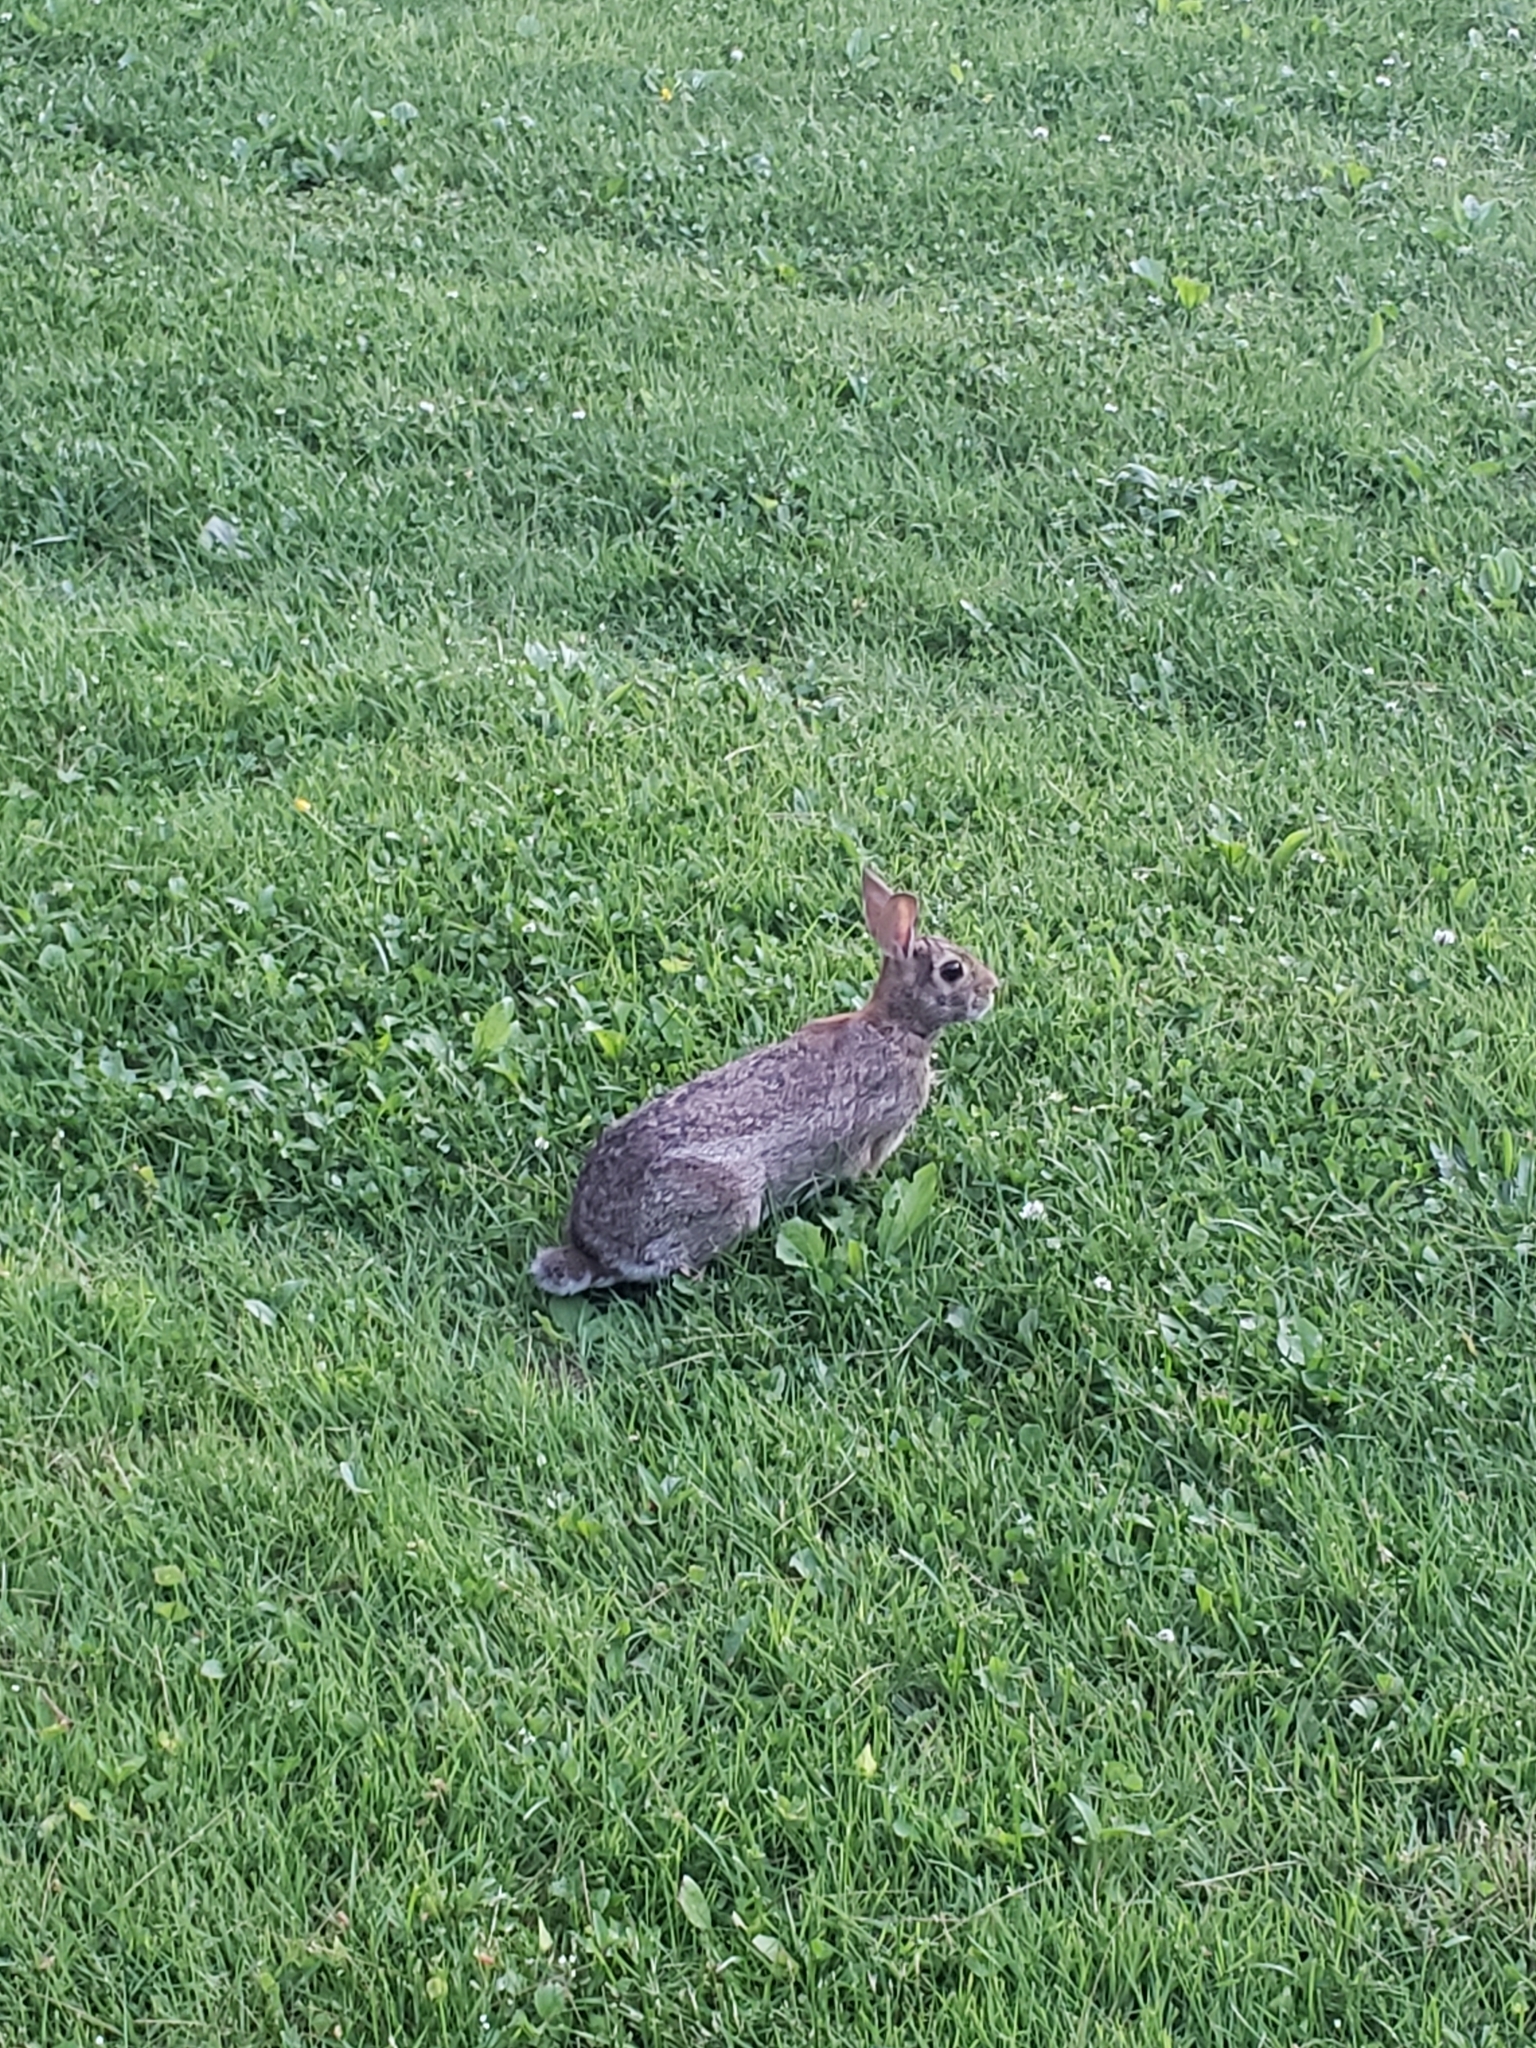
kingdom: Animalia
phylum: Chordata
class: Mammalia
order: Lagomorpha
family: Leporidae
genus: Sylvilagus
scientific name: Sylvilagus floridanus
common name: Eastern cottontail
